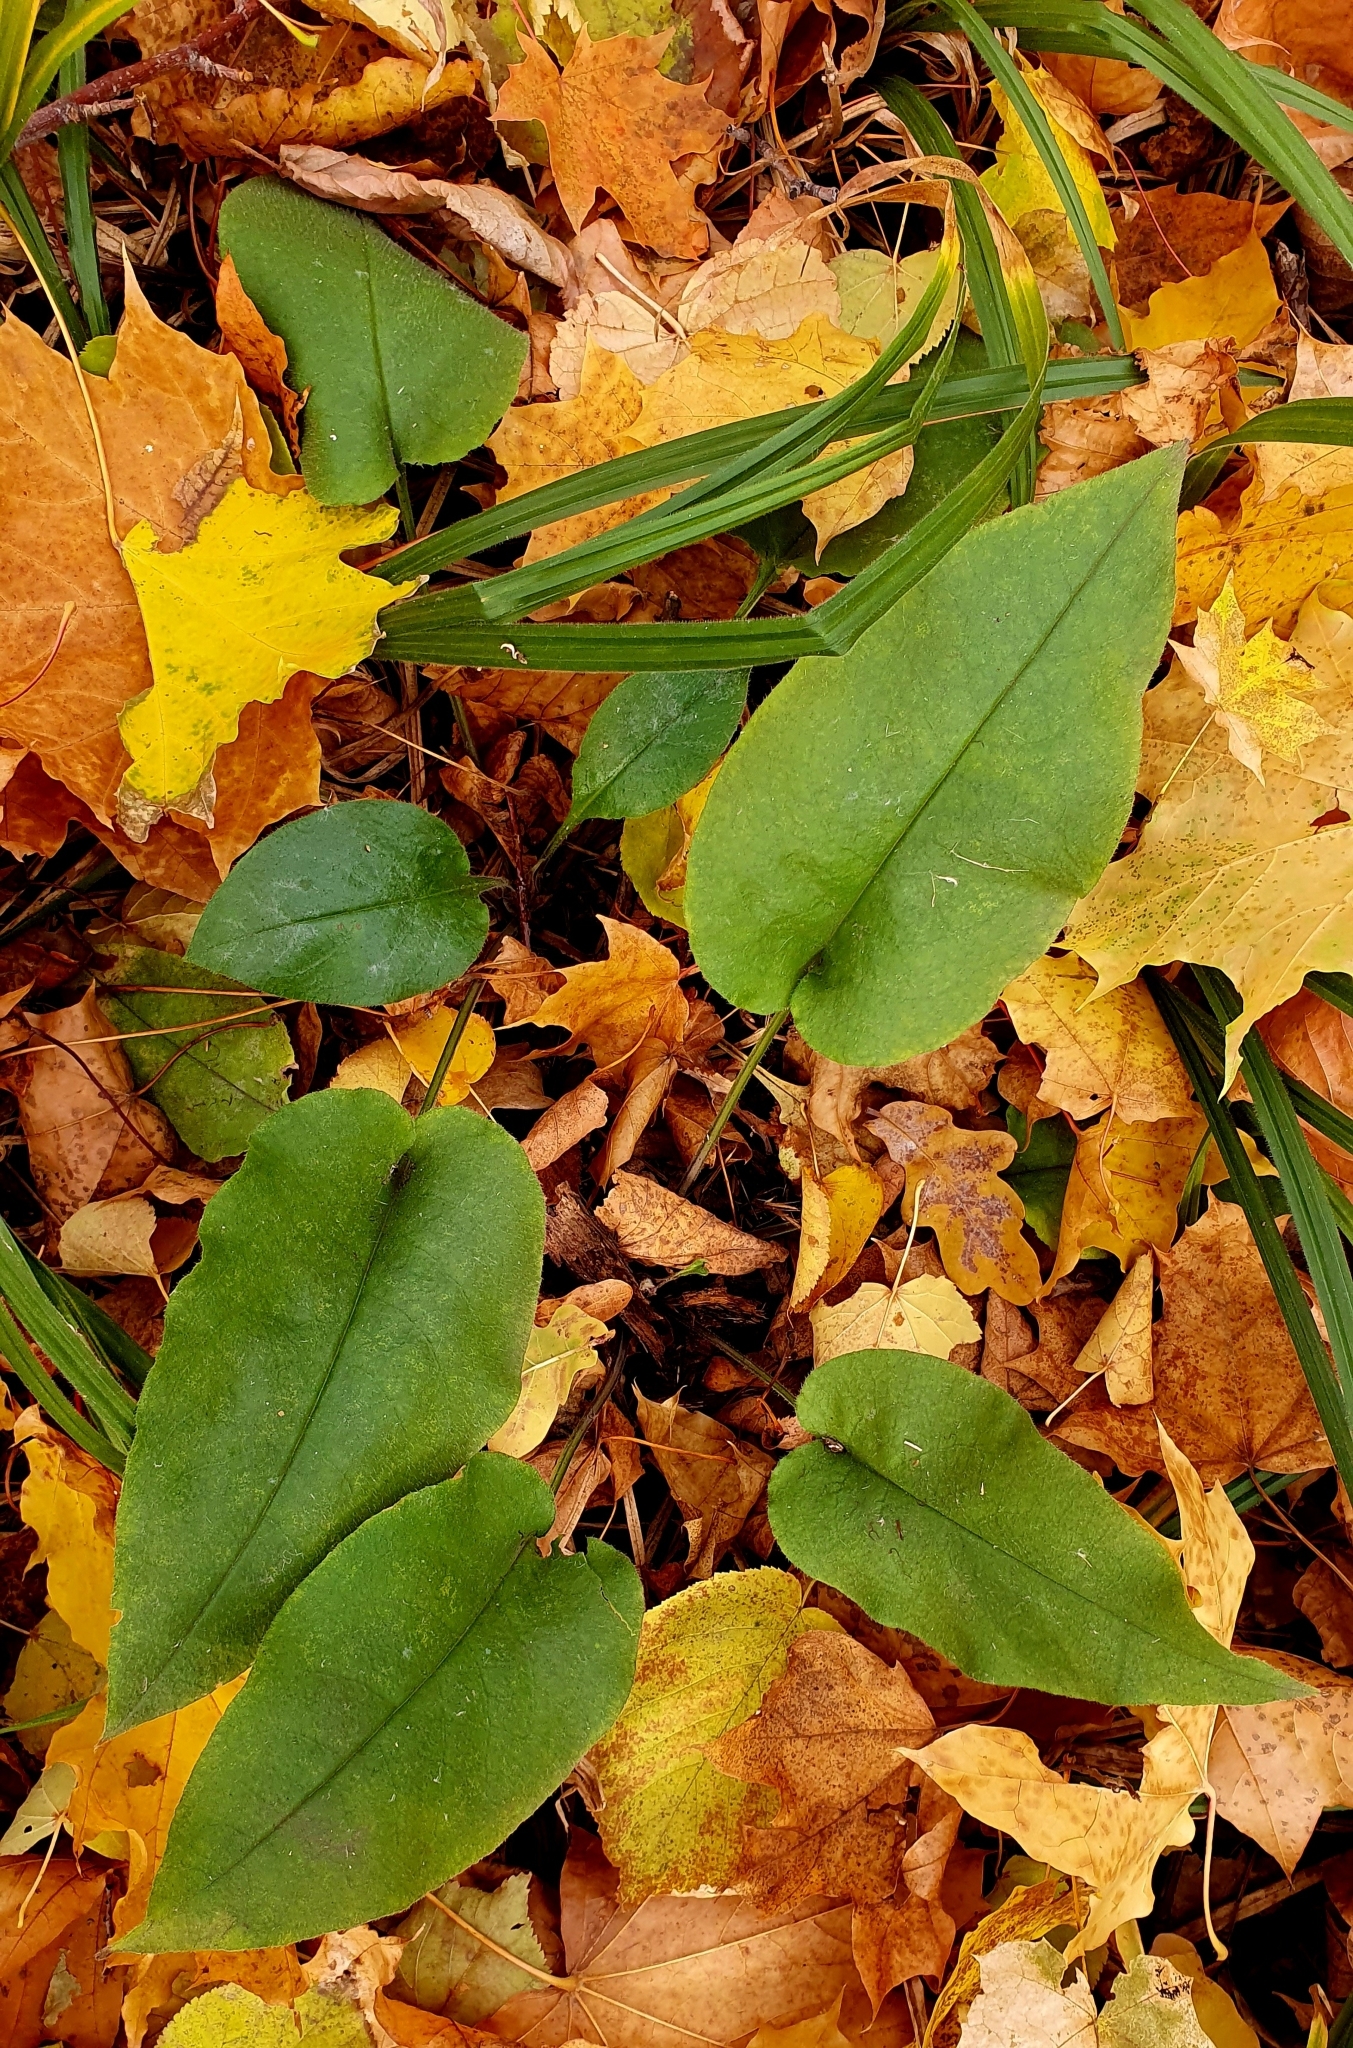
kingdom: Plantae
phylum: Tracheophyta
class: Magnoliopsida
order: Boraginales
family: Boraginaceae
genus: Pulmonaria
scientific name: Pulmonaria obscura
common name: Suffolk lungwort
